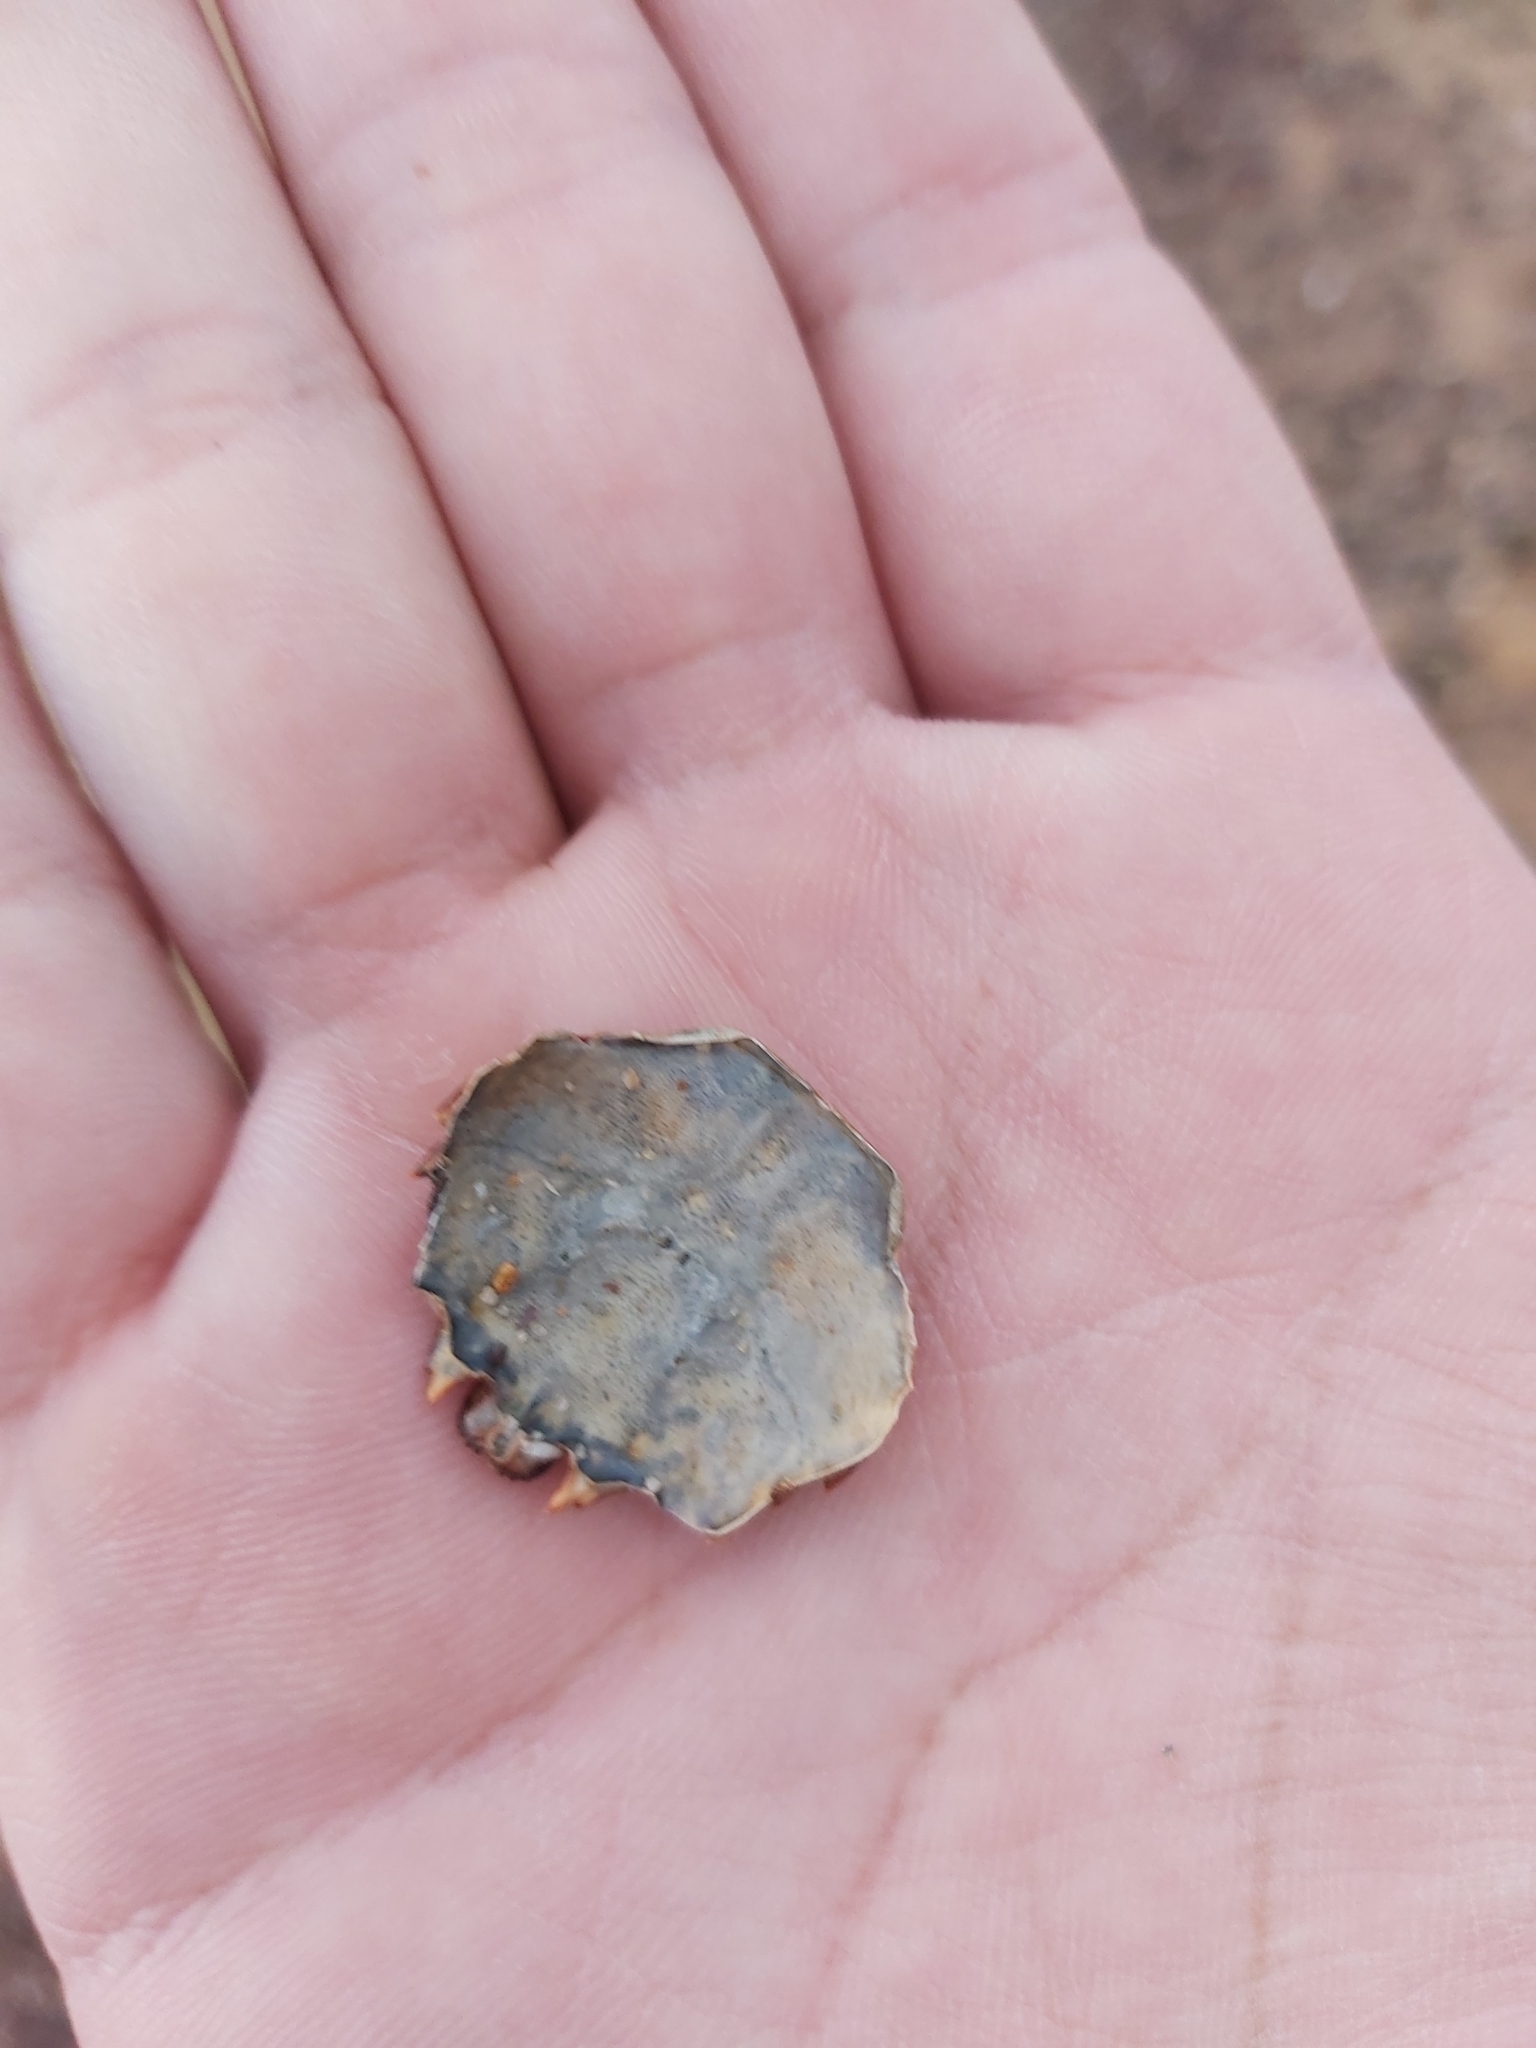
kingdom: Animalia
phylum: Arthropoda
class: Malacostraca
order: Decapoda
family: Plagusiidae
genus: Guinusia
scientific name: Guinusia chabrus
